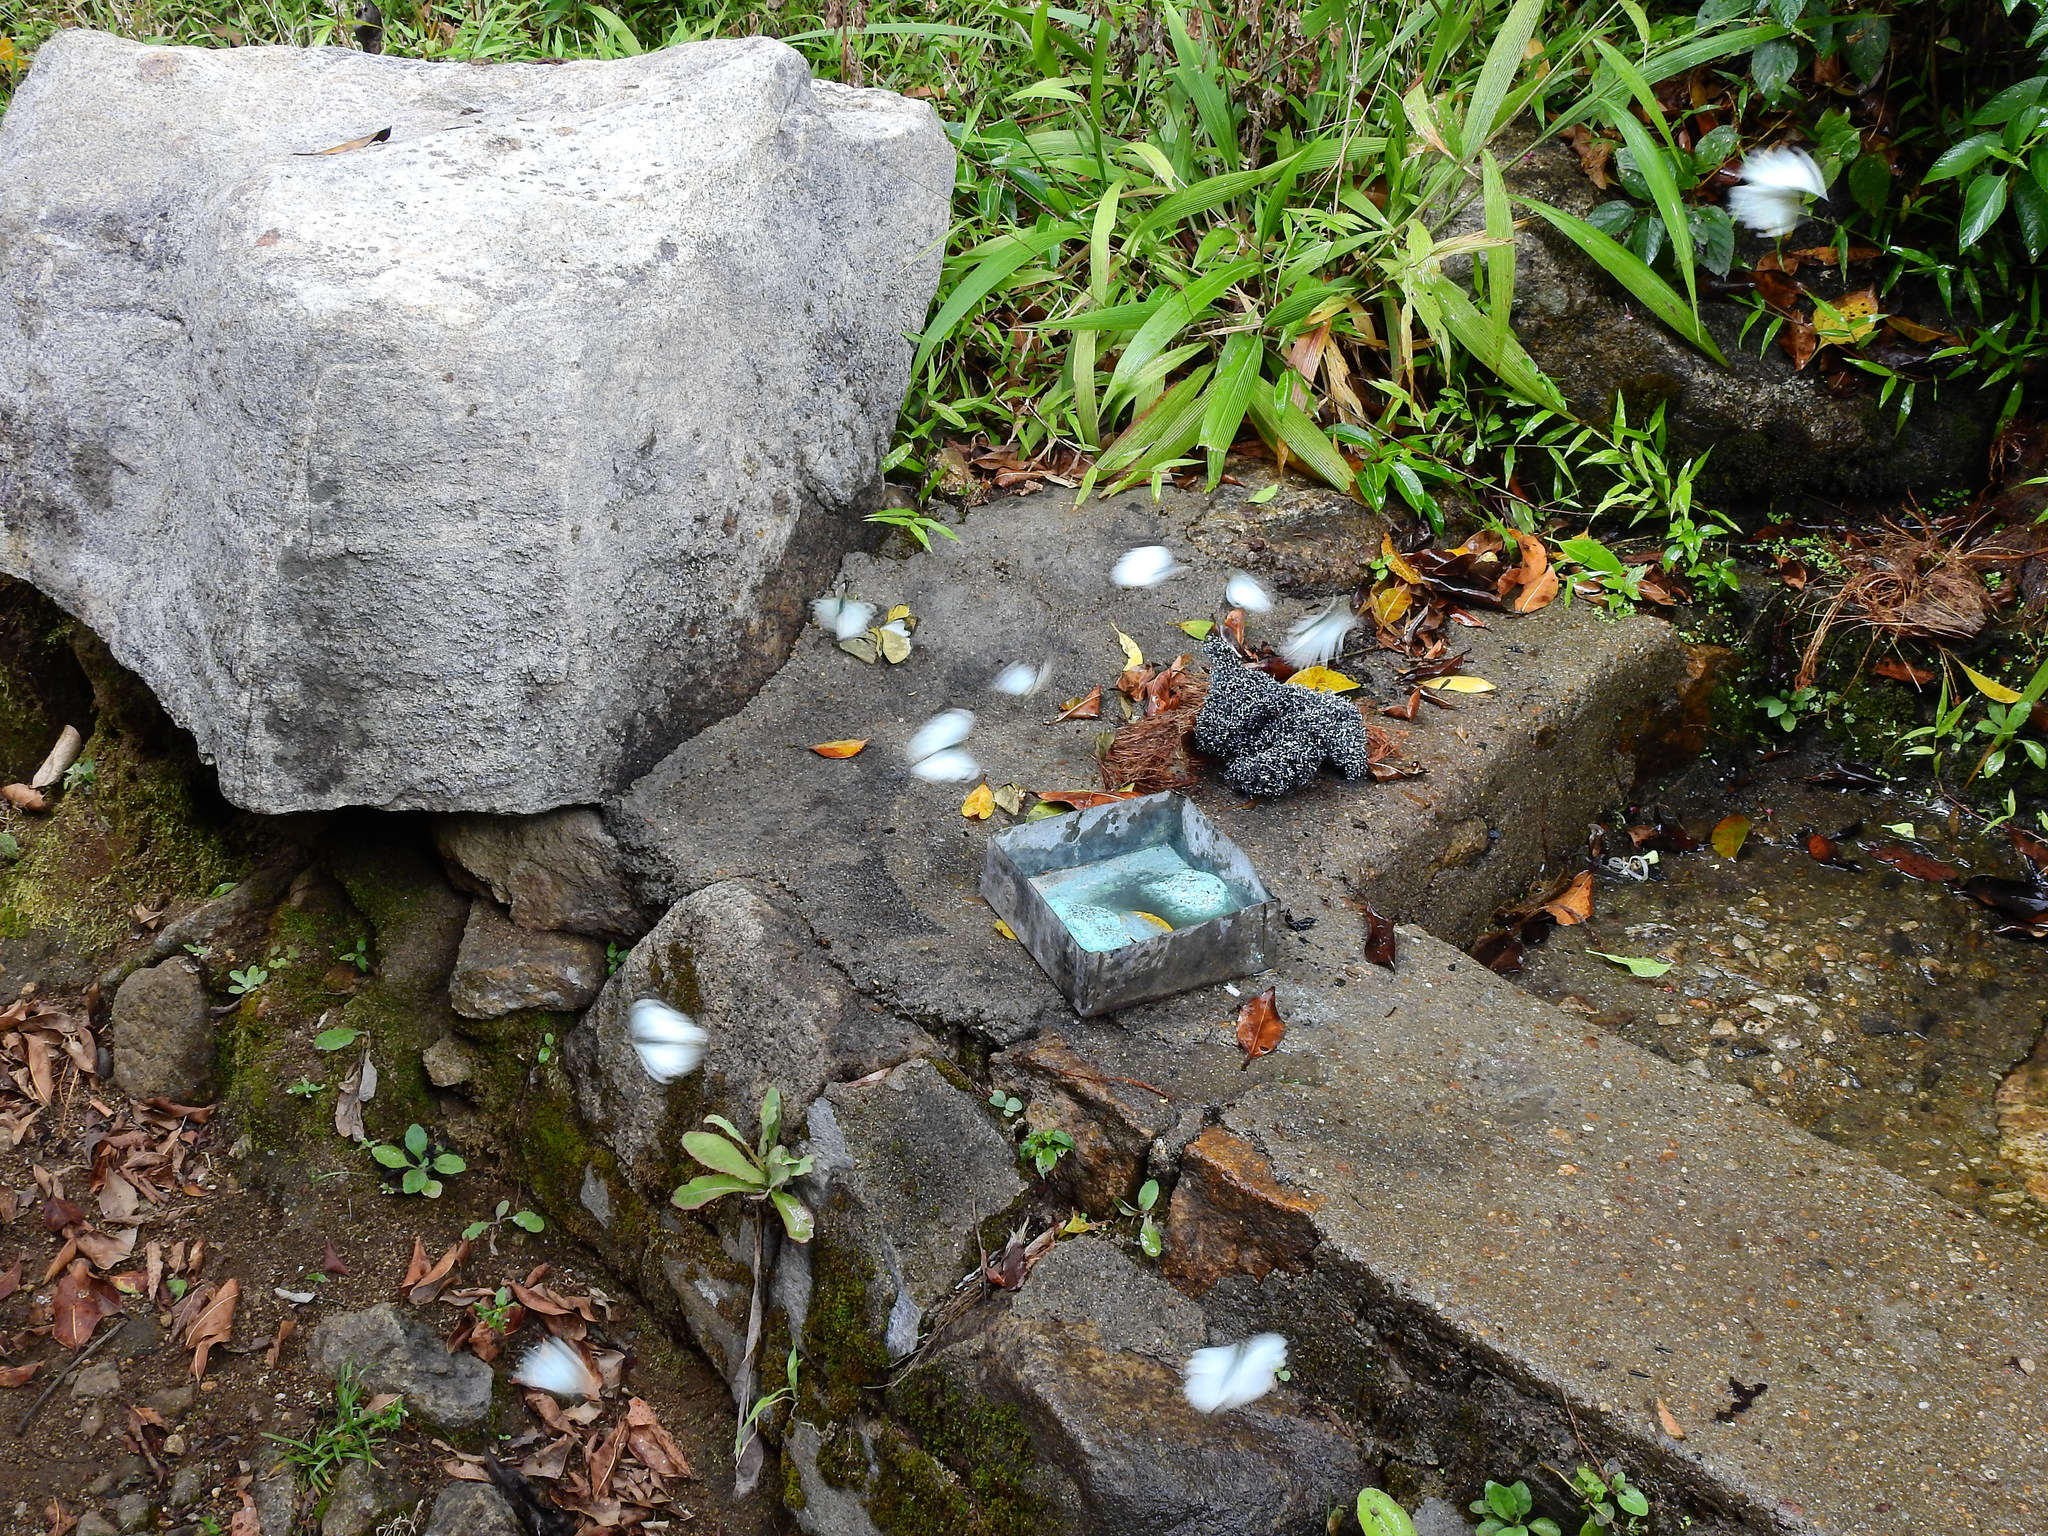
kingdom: Animalia
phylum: Arthropoda
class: Insecta
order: Lepidoptera
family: Pieridae
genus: Appias
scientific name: Appias lalage
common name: Spot puffin
